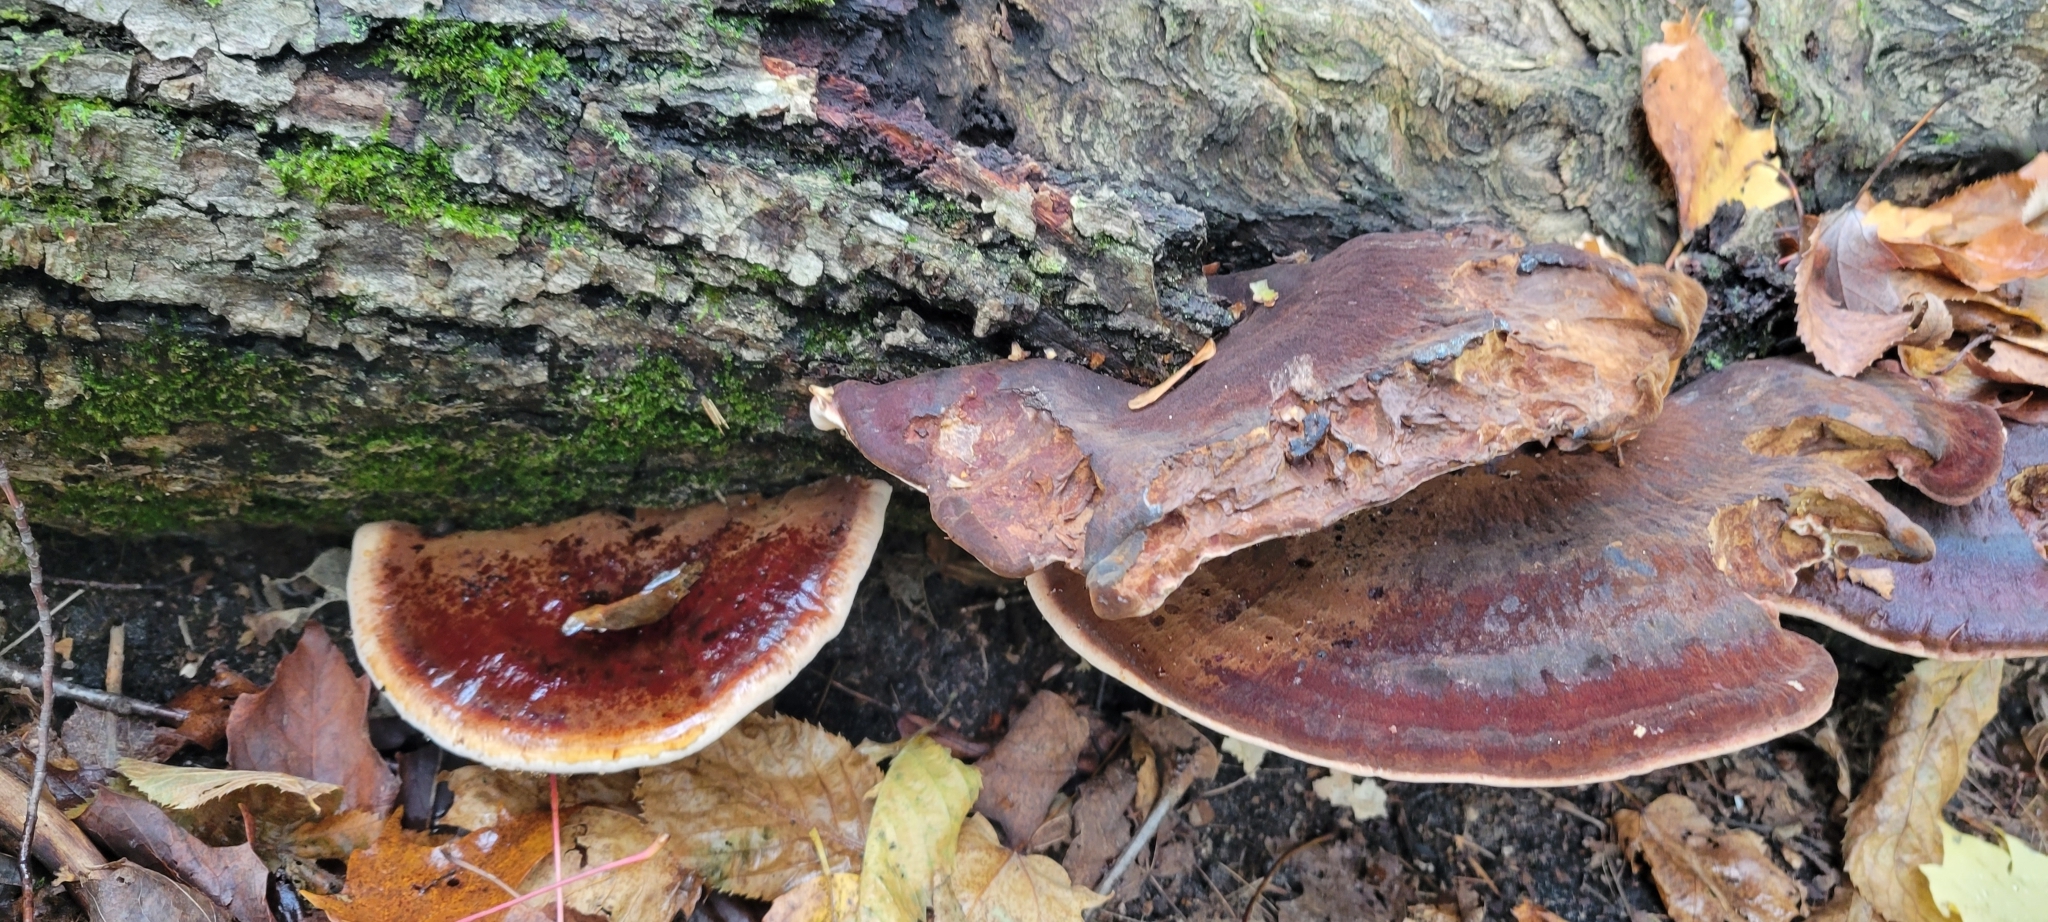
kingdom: Fungi
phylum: Basidiomycota
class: Agaricomycetes
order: Polyporales
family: Ischnodermataceae
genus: Ischnoderma
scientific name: Ischnoderma resinosum
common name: Resinous polypore
